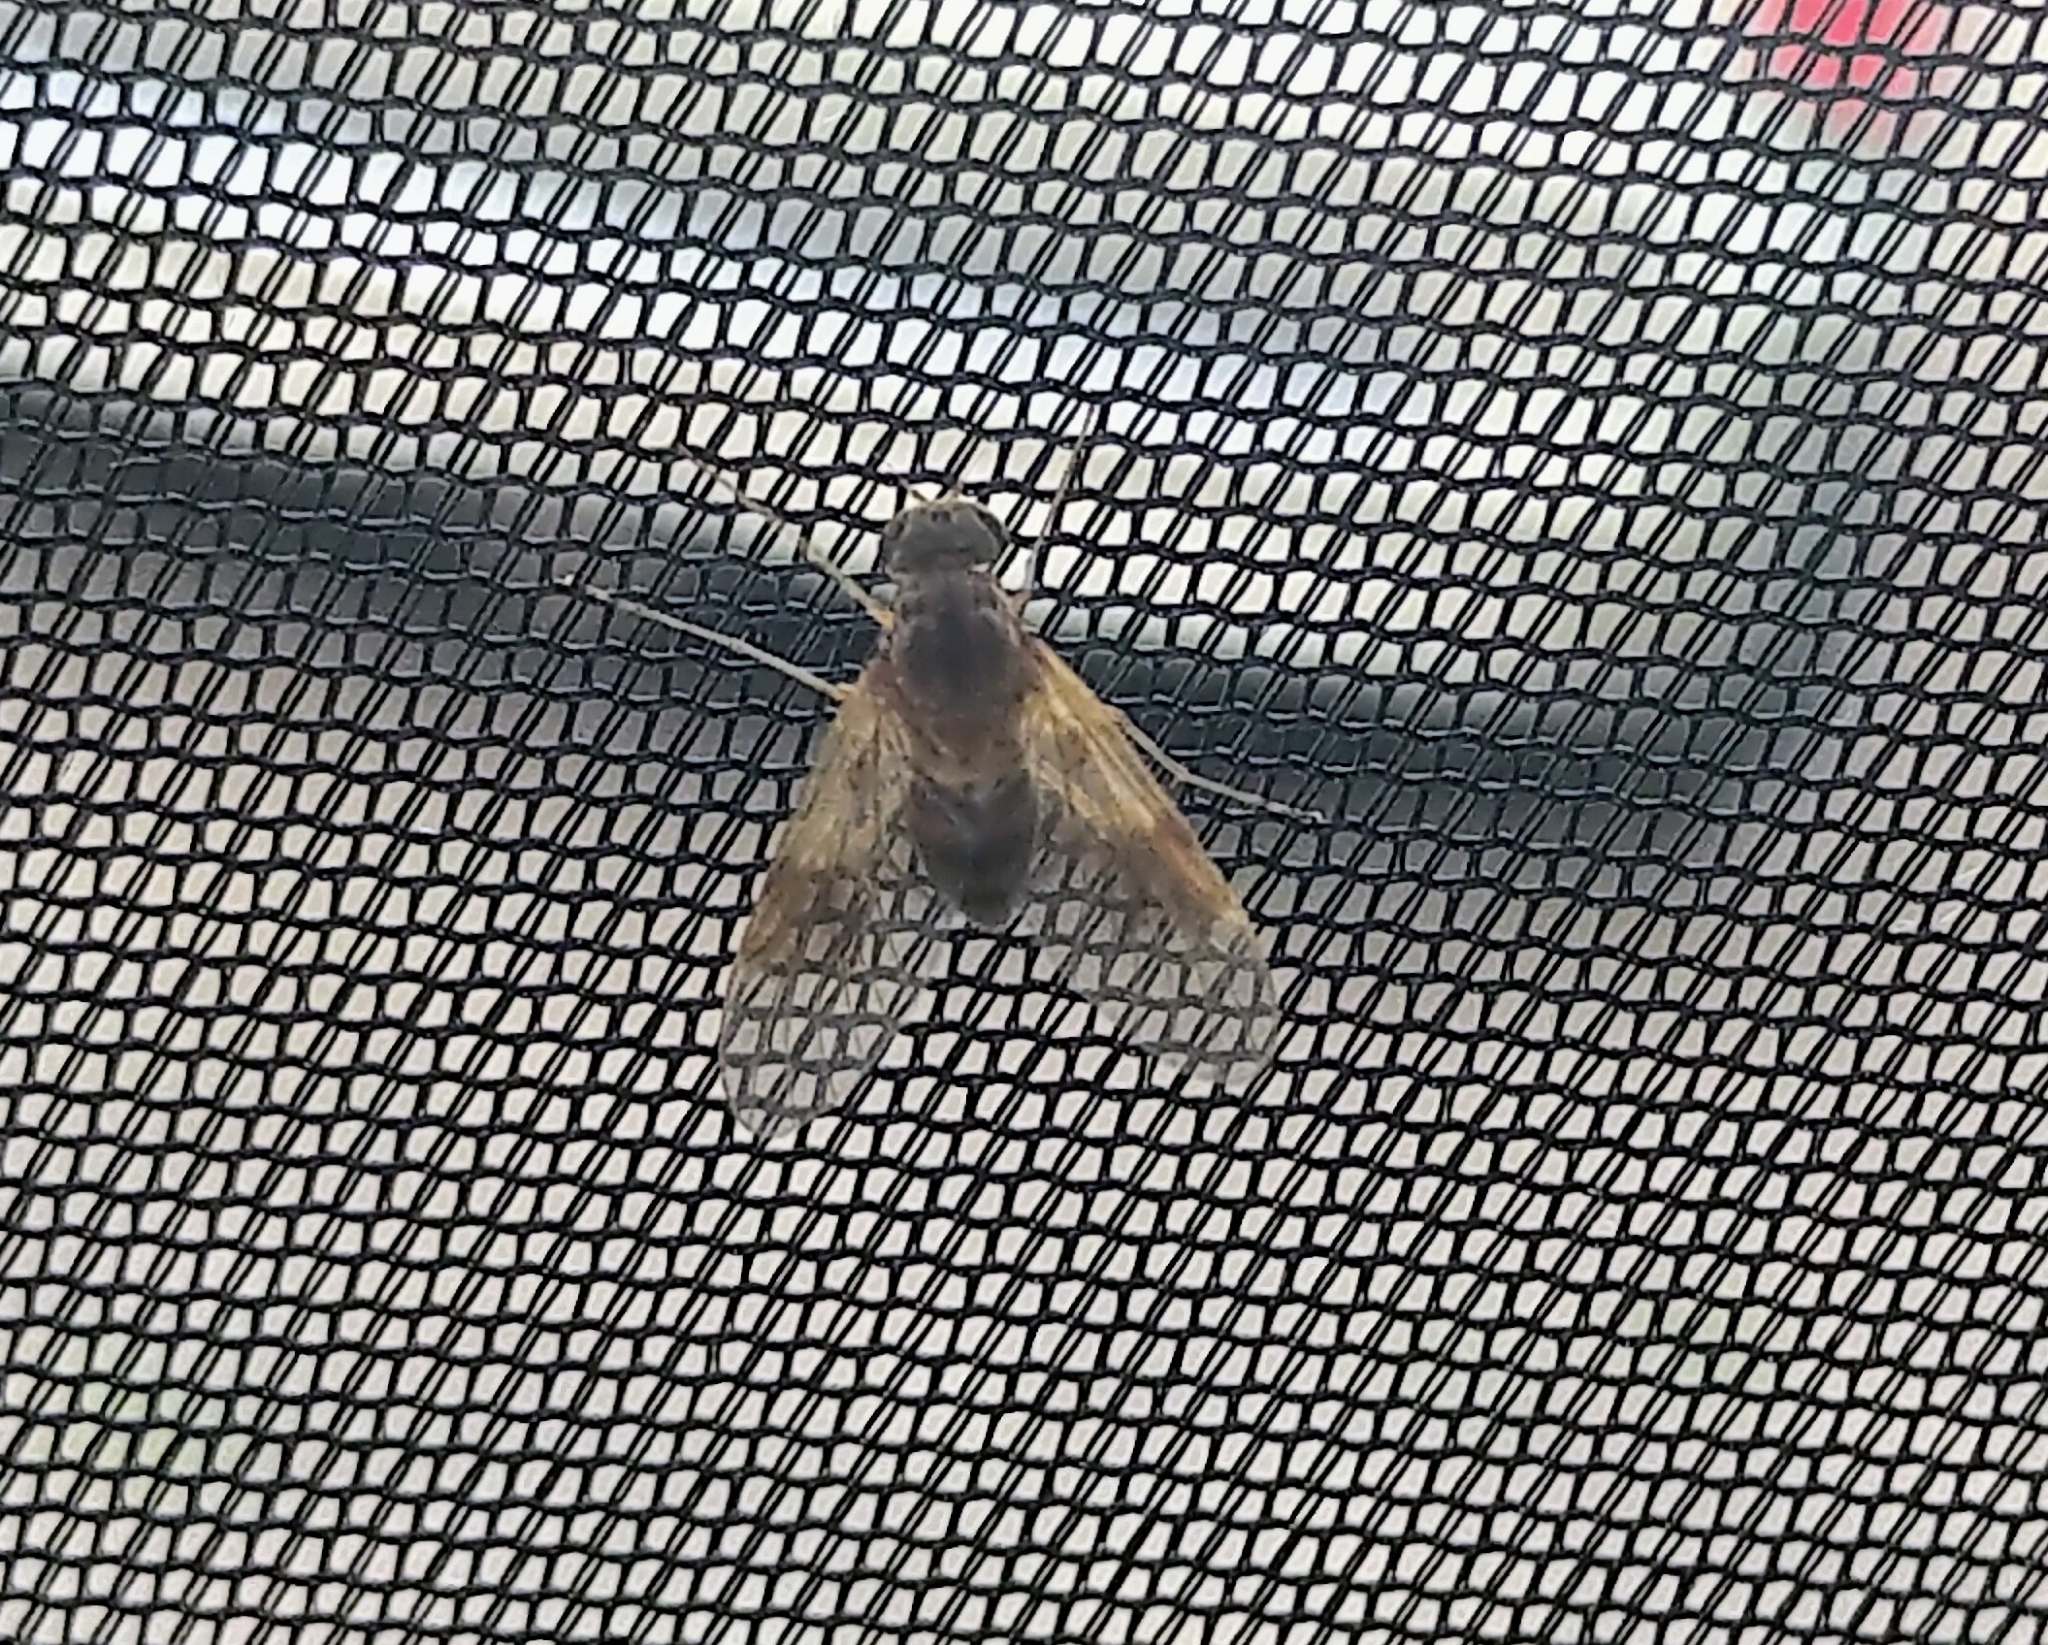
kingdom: Animalia
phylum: Arthropoda
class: Insecta
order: Diptera
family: Rhagionidae
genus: Chrysopilus
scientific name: Chrysopilus quadratus
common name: Quadrate snipe fly
